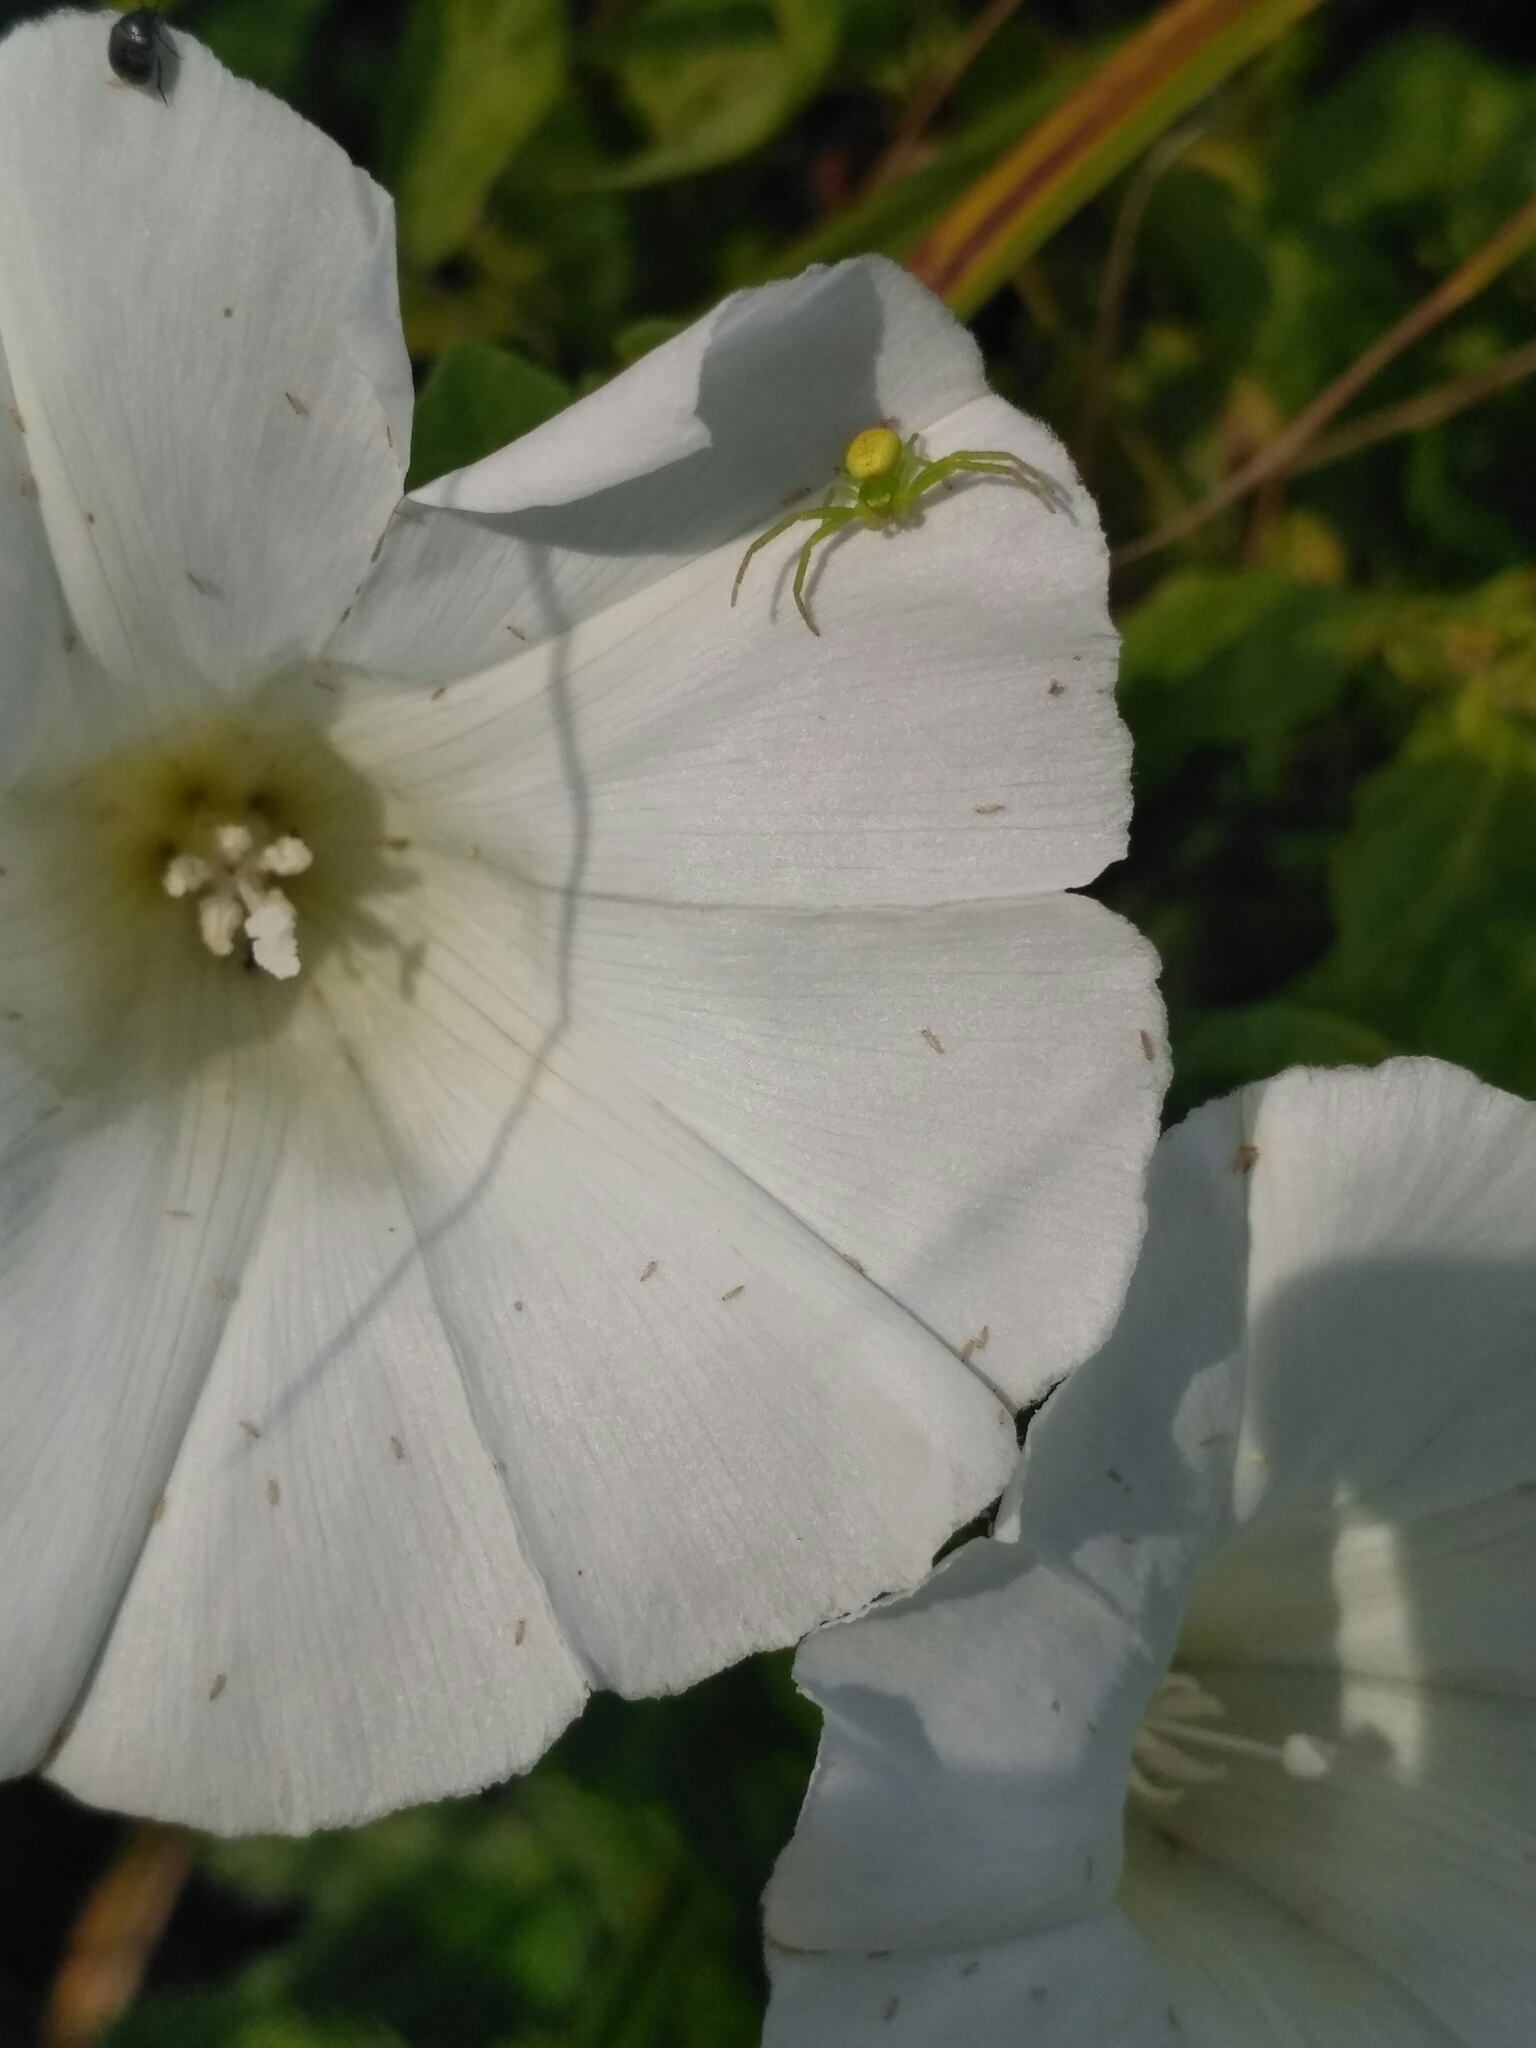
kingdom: Animalia
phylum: Arthropoda
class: Arachnida
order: Araneae
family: Thomisidae
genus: Ebrechtella
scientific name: Ebrechtella tricuspidata
